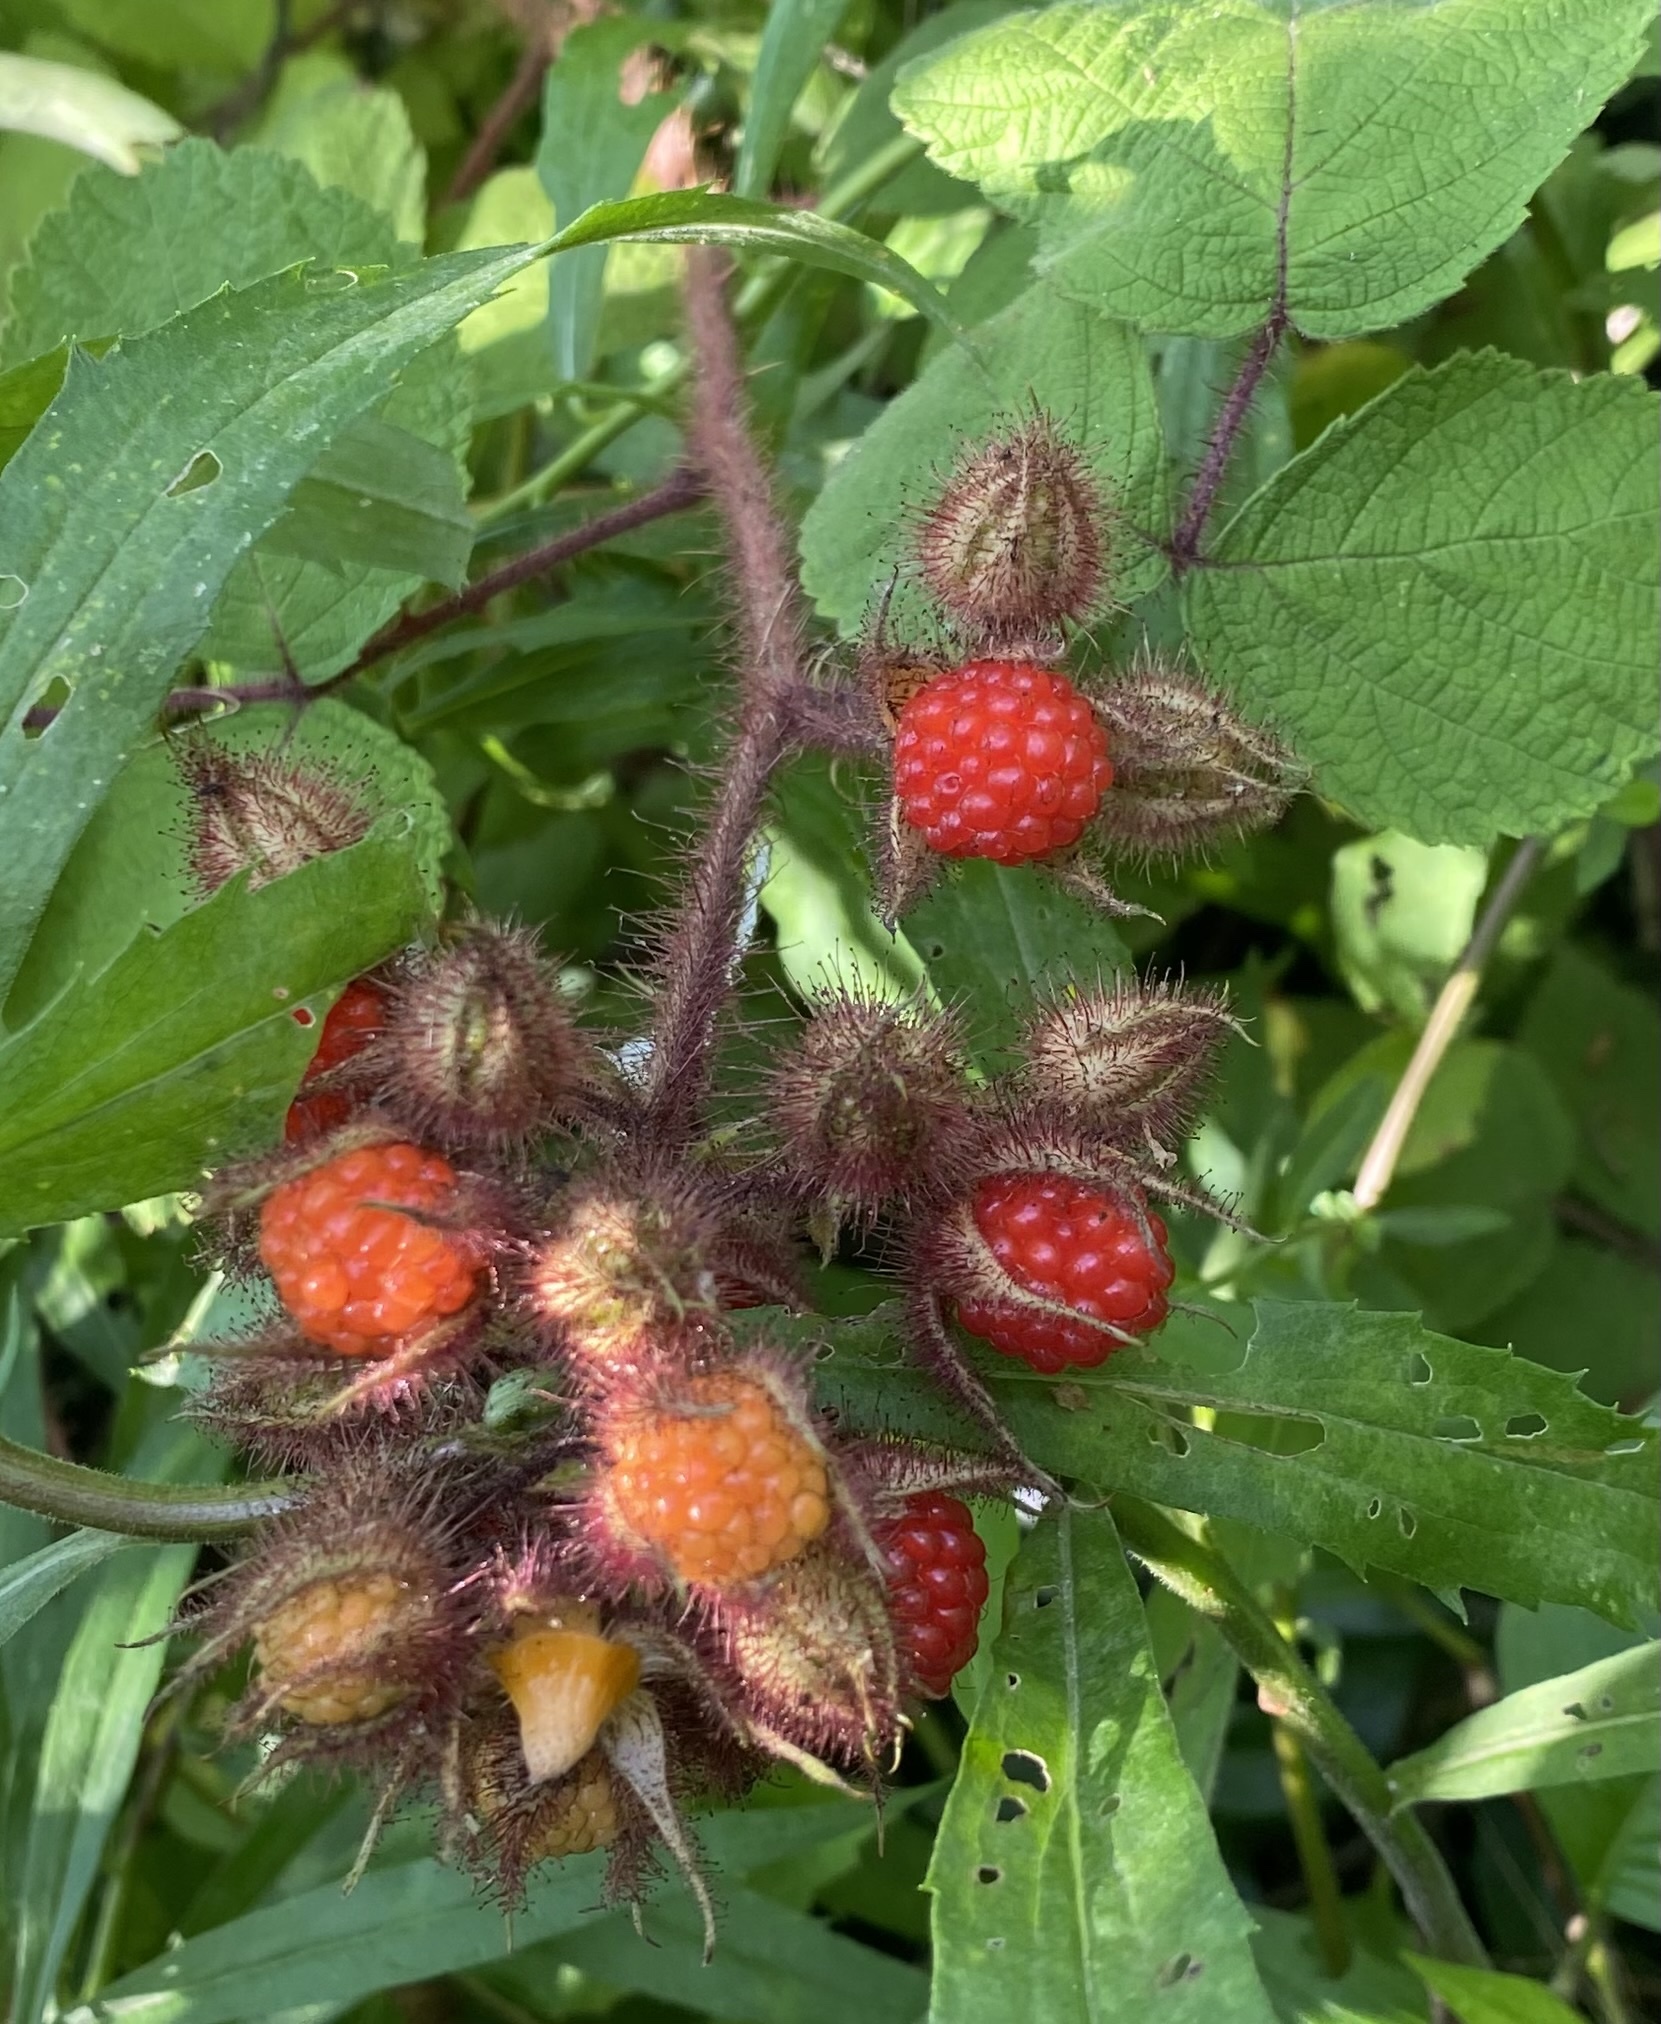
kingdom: Plantae
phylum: Tracheophyta
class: Magnoliopsida
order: Rosales
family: Rosaceae
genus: Rubus
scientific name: Rubus phoenicolasius
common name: Japanese wineberry
